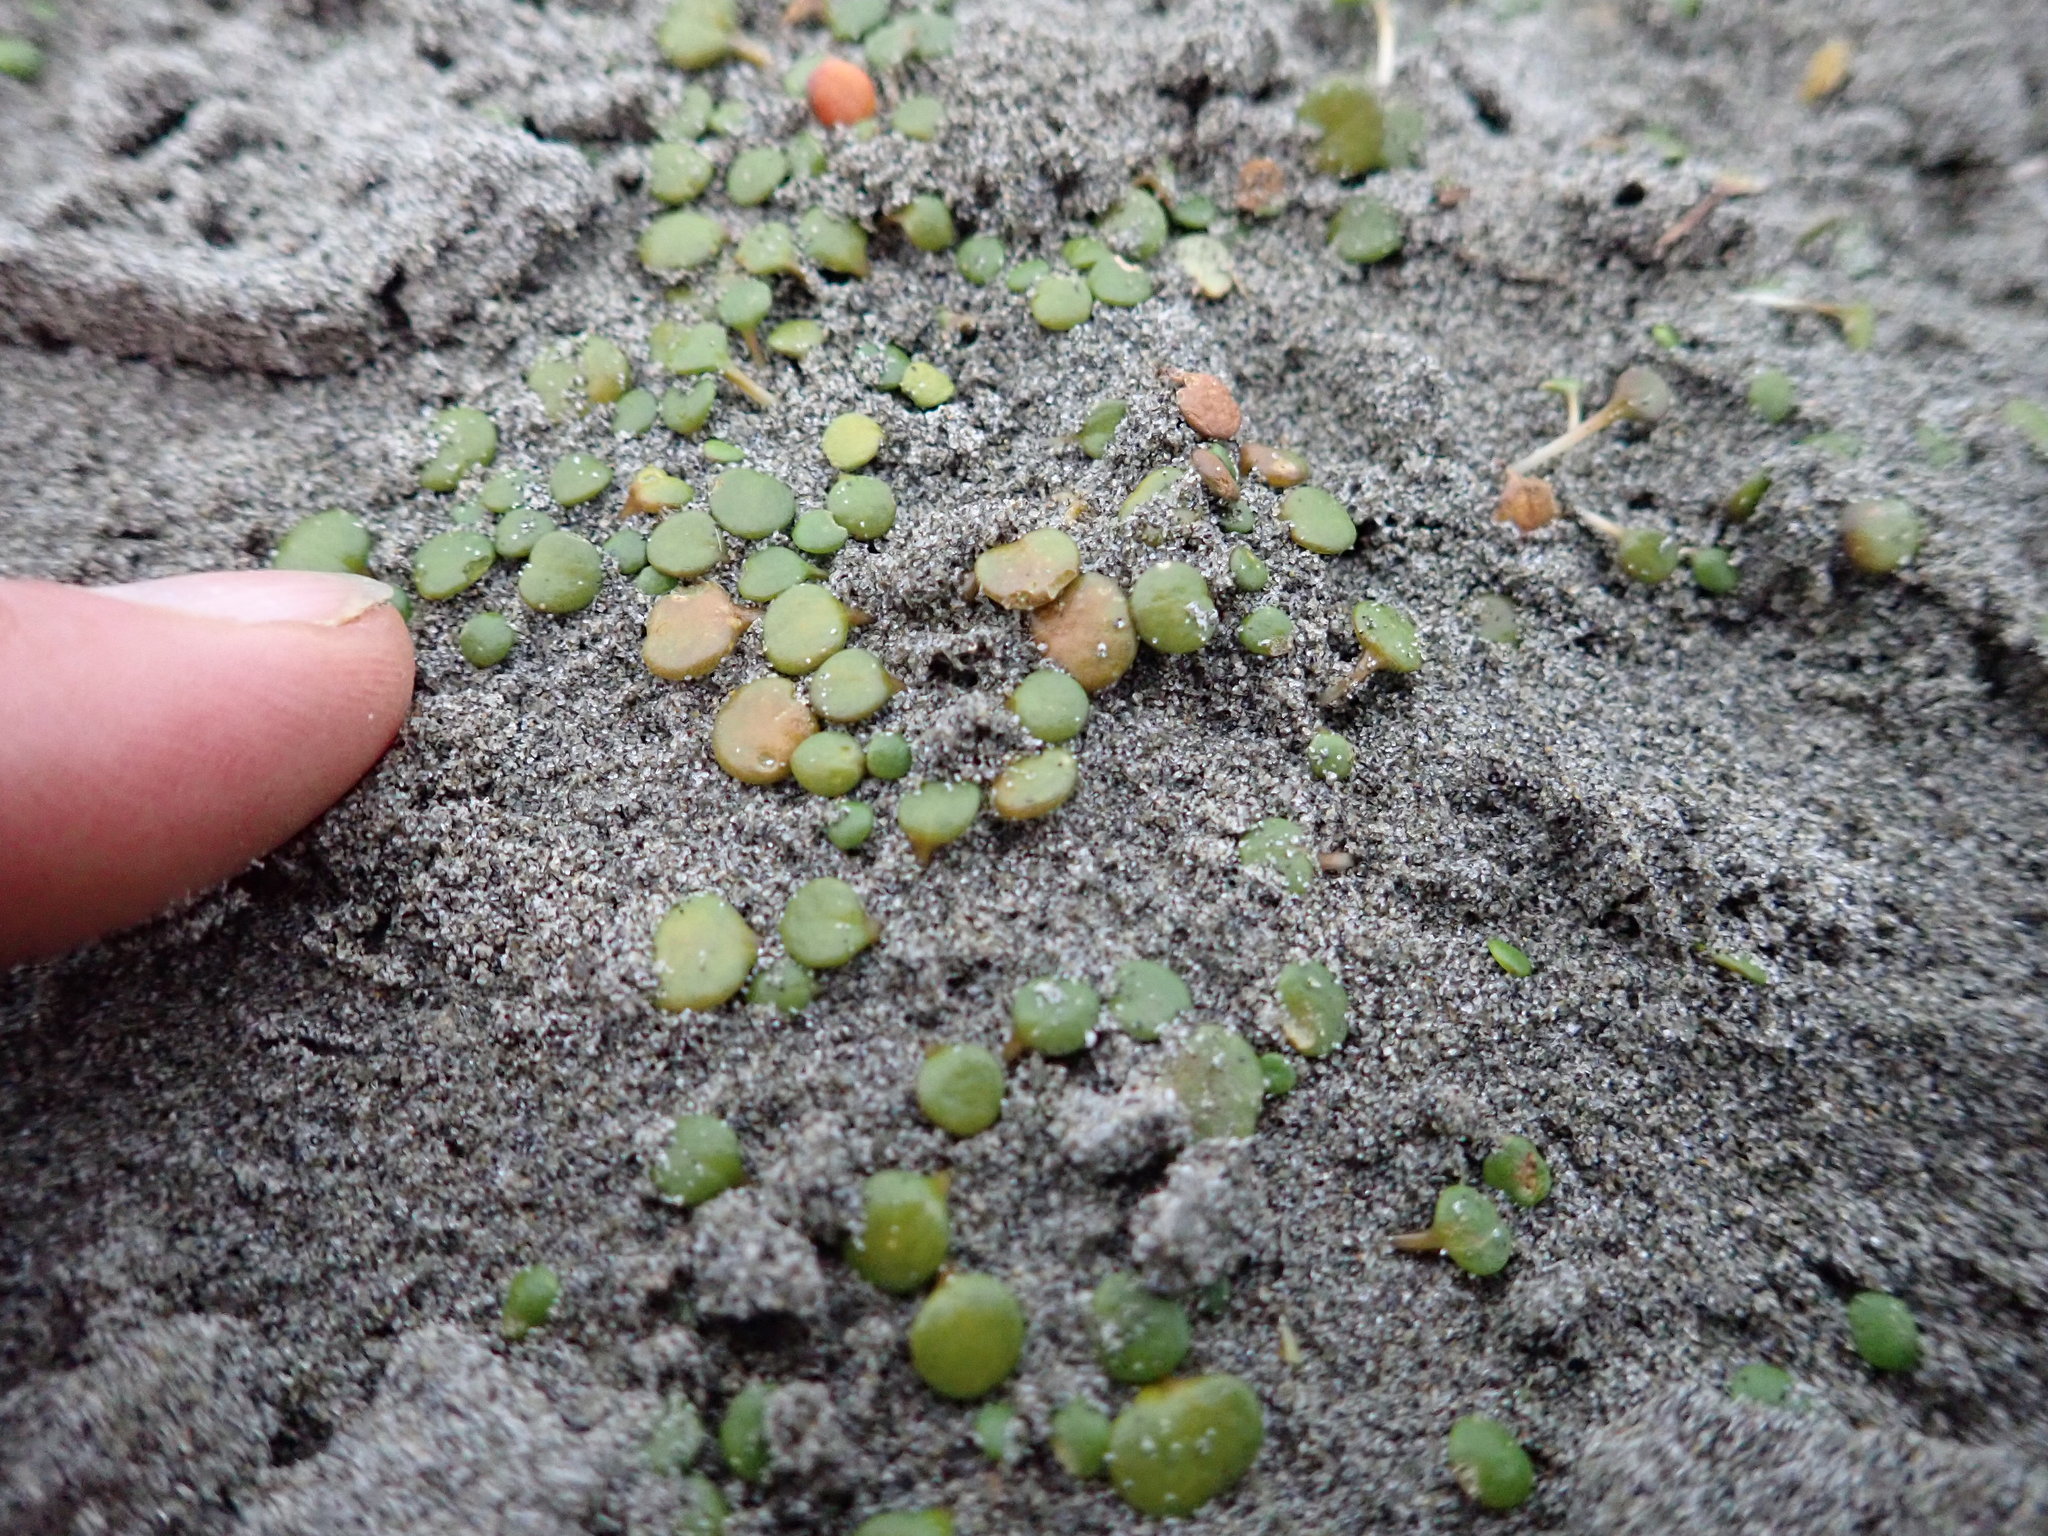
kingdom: Plantae
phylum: Tracheophyta
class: Magnoliopsida
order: Asterales
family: Goodeniaceae
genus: Goodenia
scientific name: Goodenia heenanii
